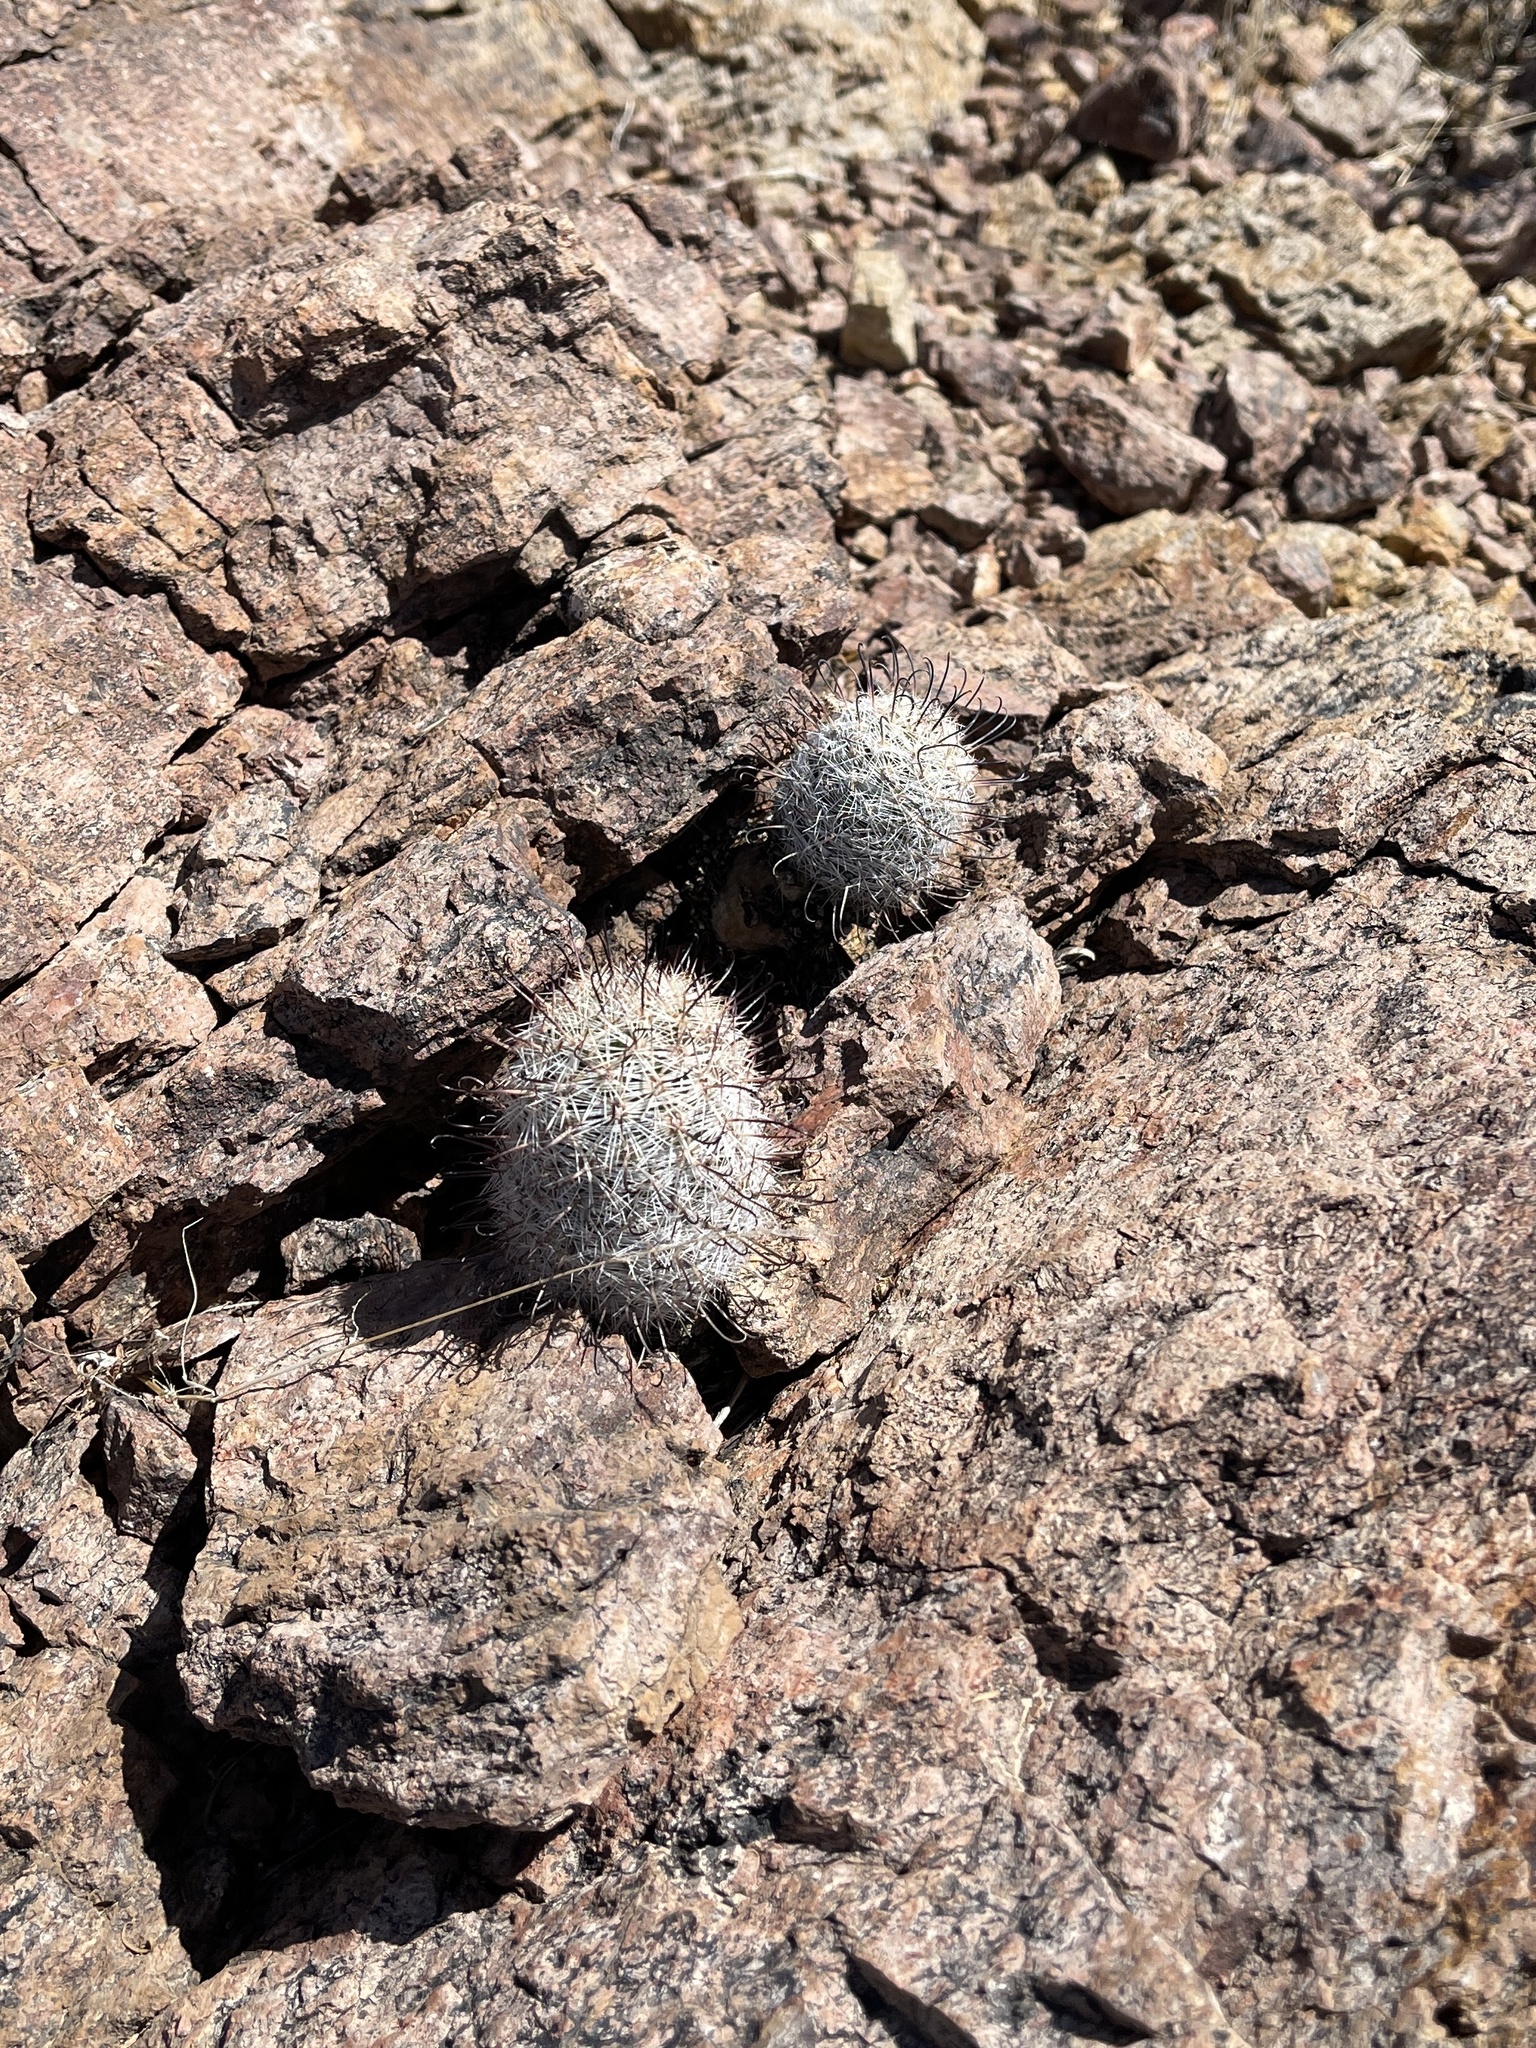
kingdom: Plantae
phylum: Tracheophyta
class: Magnoliopsida
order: Caryophyllales
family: Cactaceae
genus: Cochemiea
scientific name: Cochemiea grahamii
